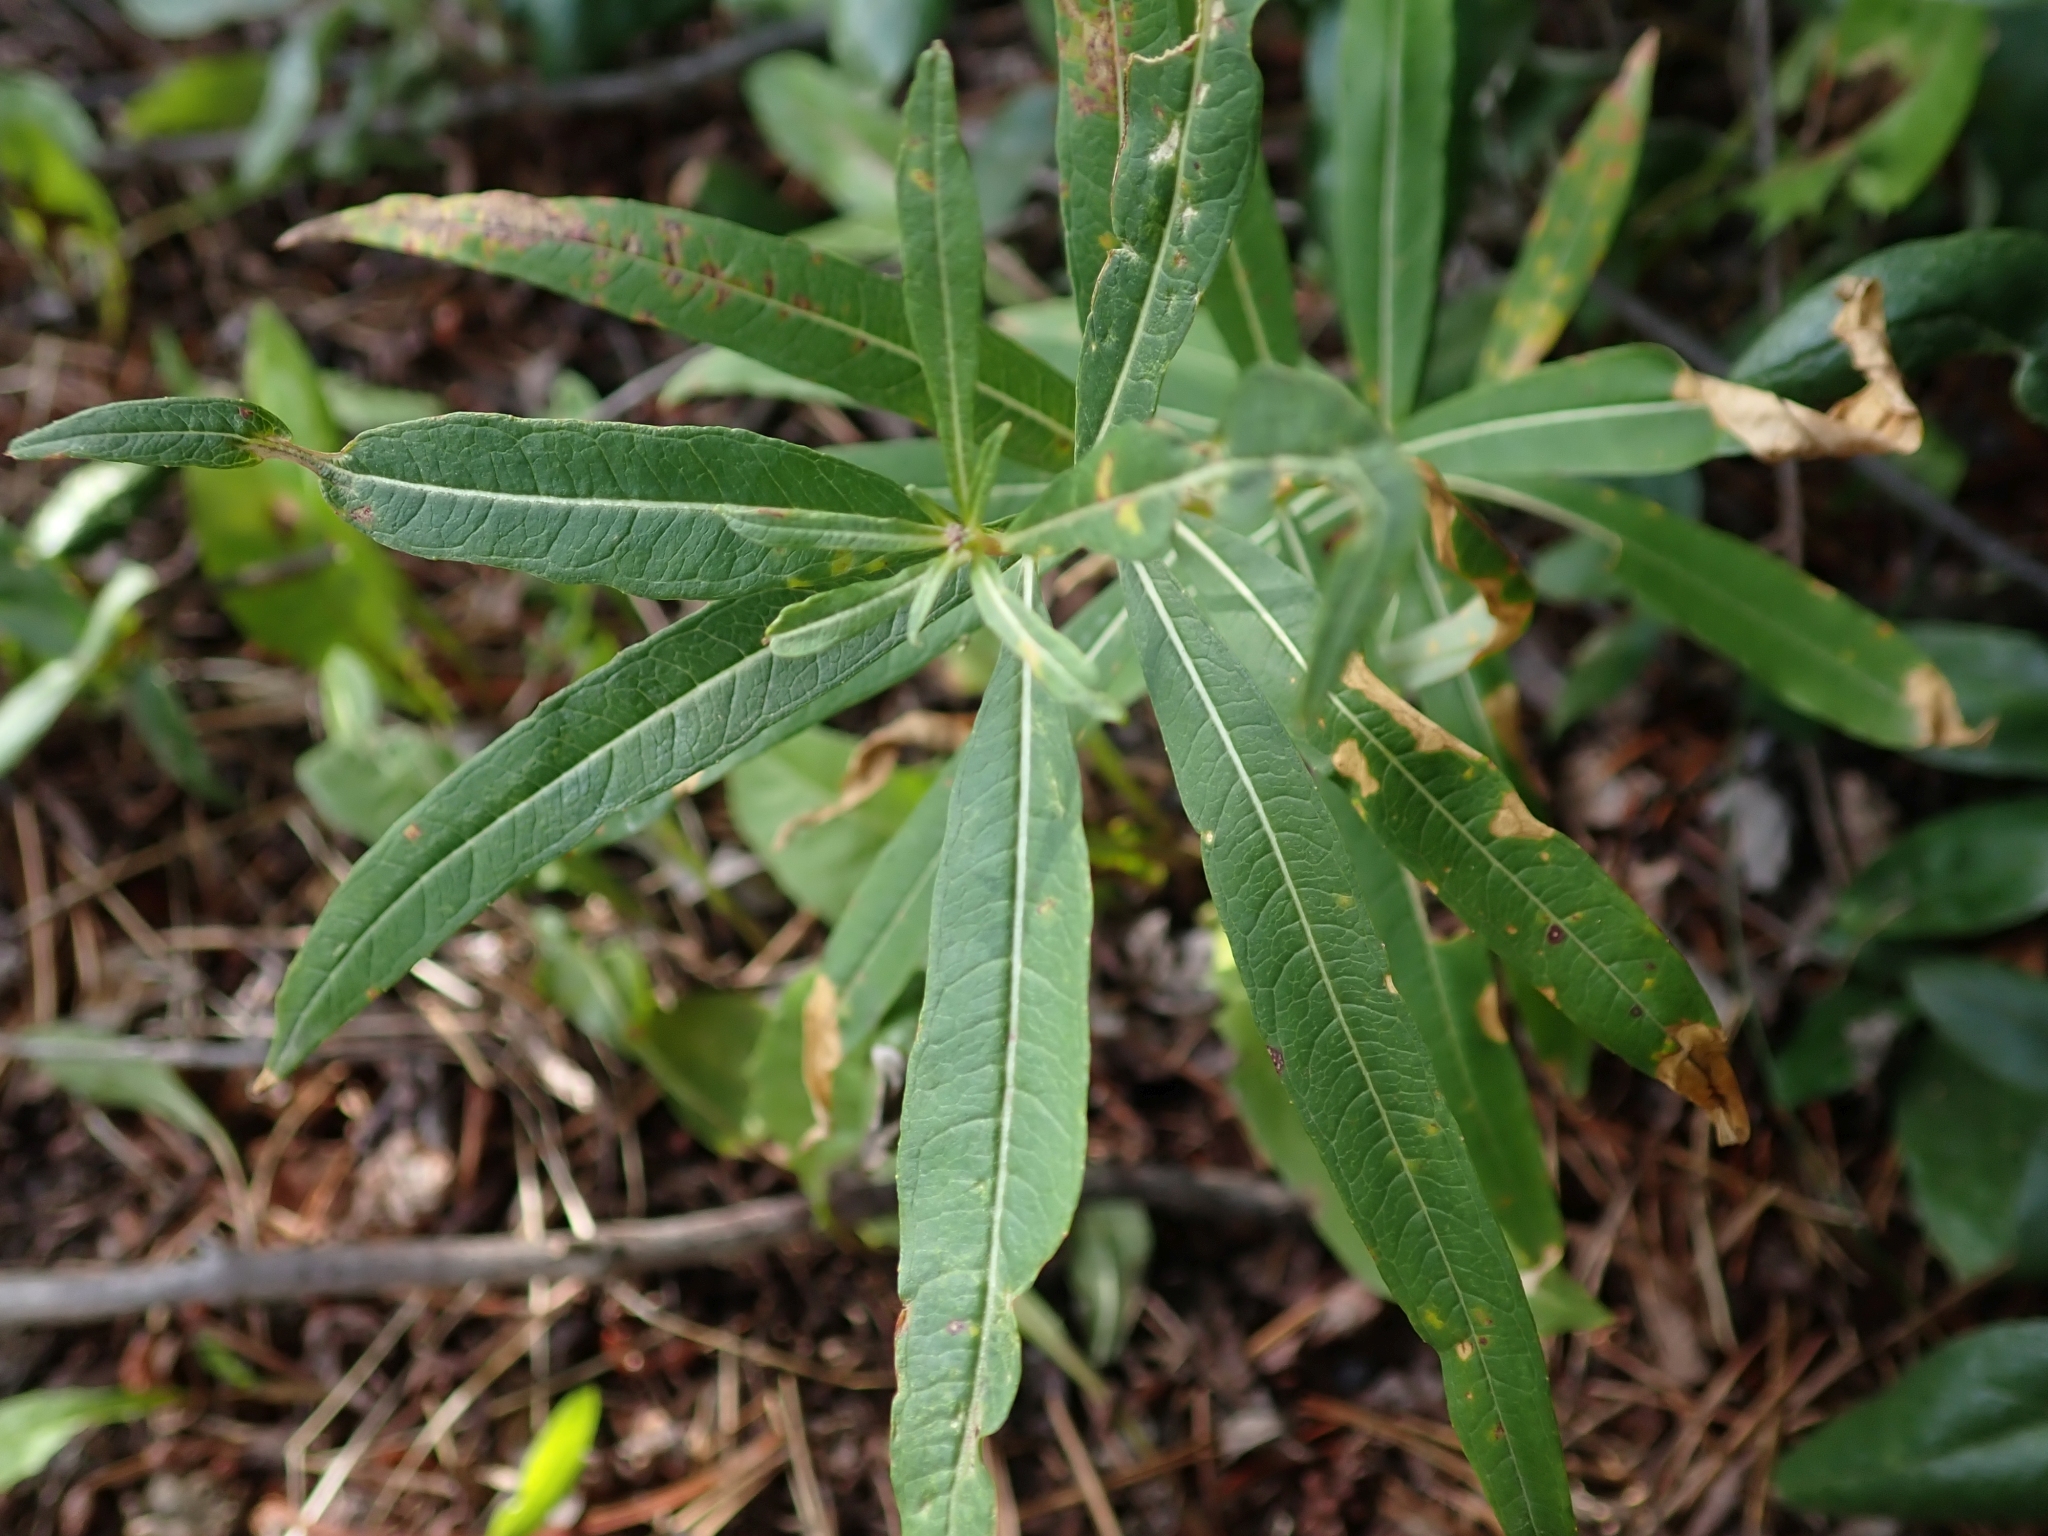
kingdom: Plantae
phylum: Tracheophyta
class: Magnoliopsida
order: Myrtales
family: Onagraceae
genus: Chamaenerion
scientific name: Chamaenerion angustifolium
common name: Fireweed
